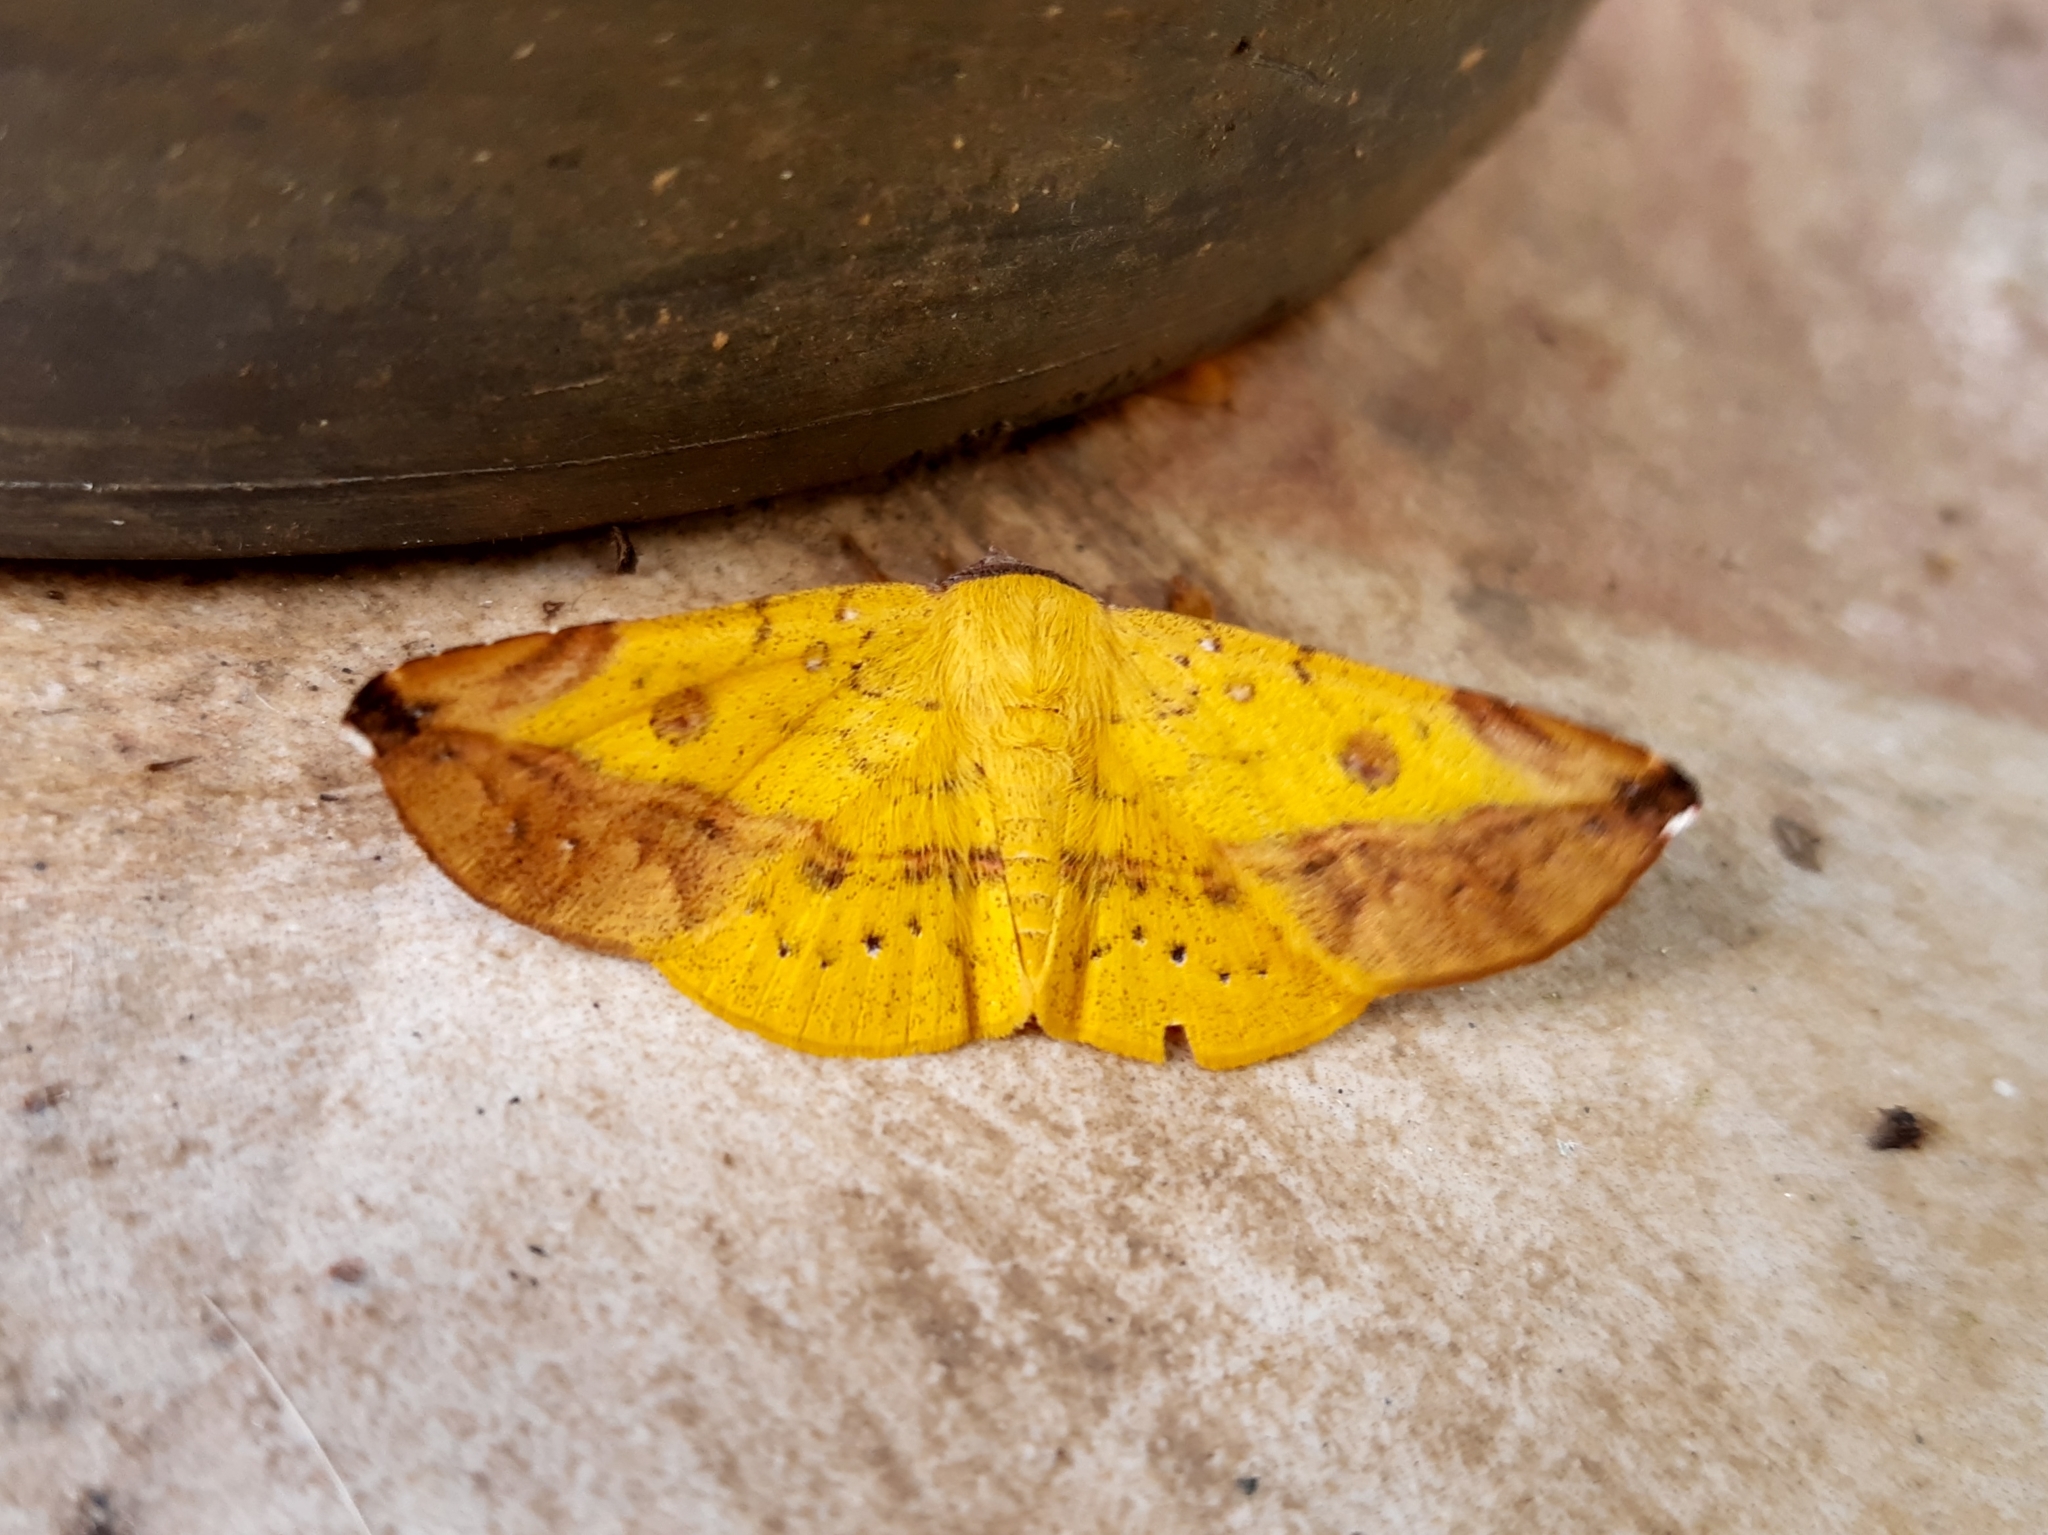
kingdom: Animalia
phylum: Arthropoda
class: Insecta
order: Lepidoptera
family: Erebidae
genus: Epitausa
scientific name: Epitausa coppryi
